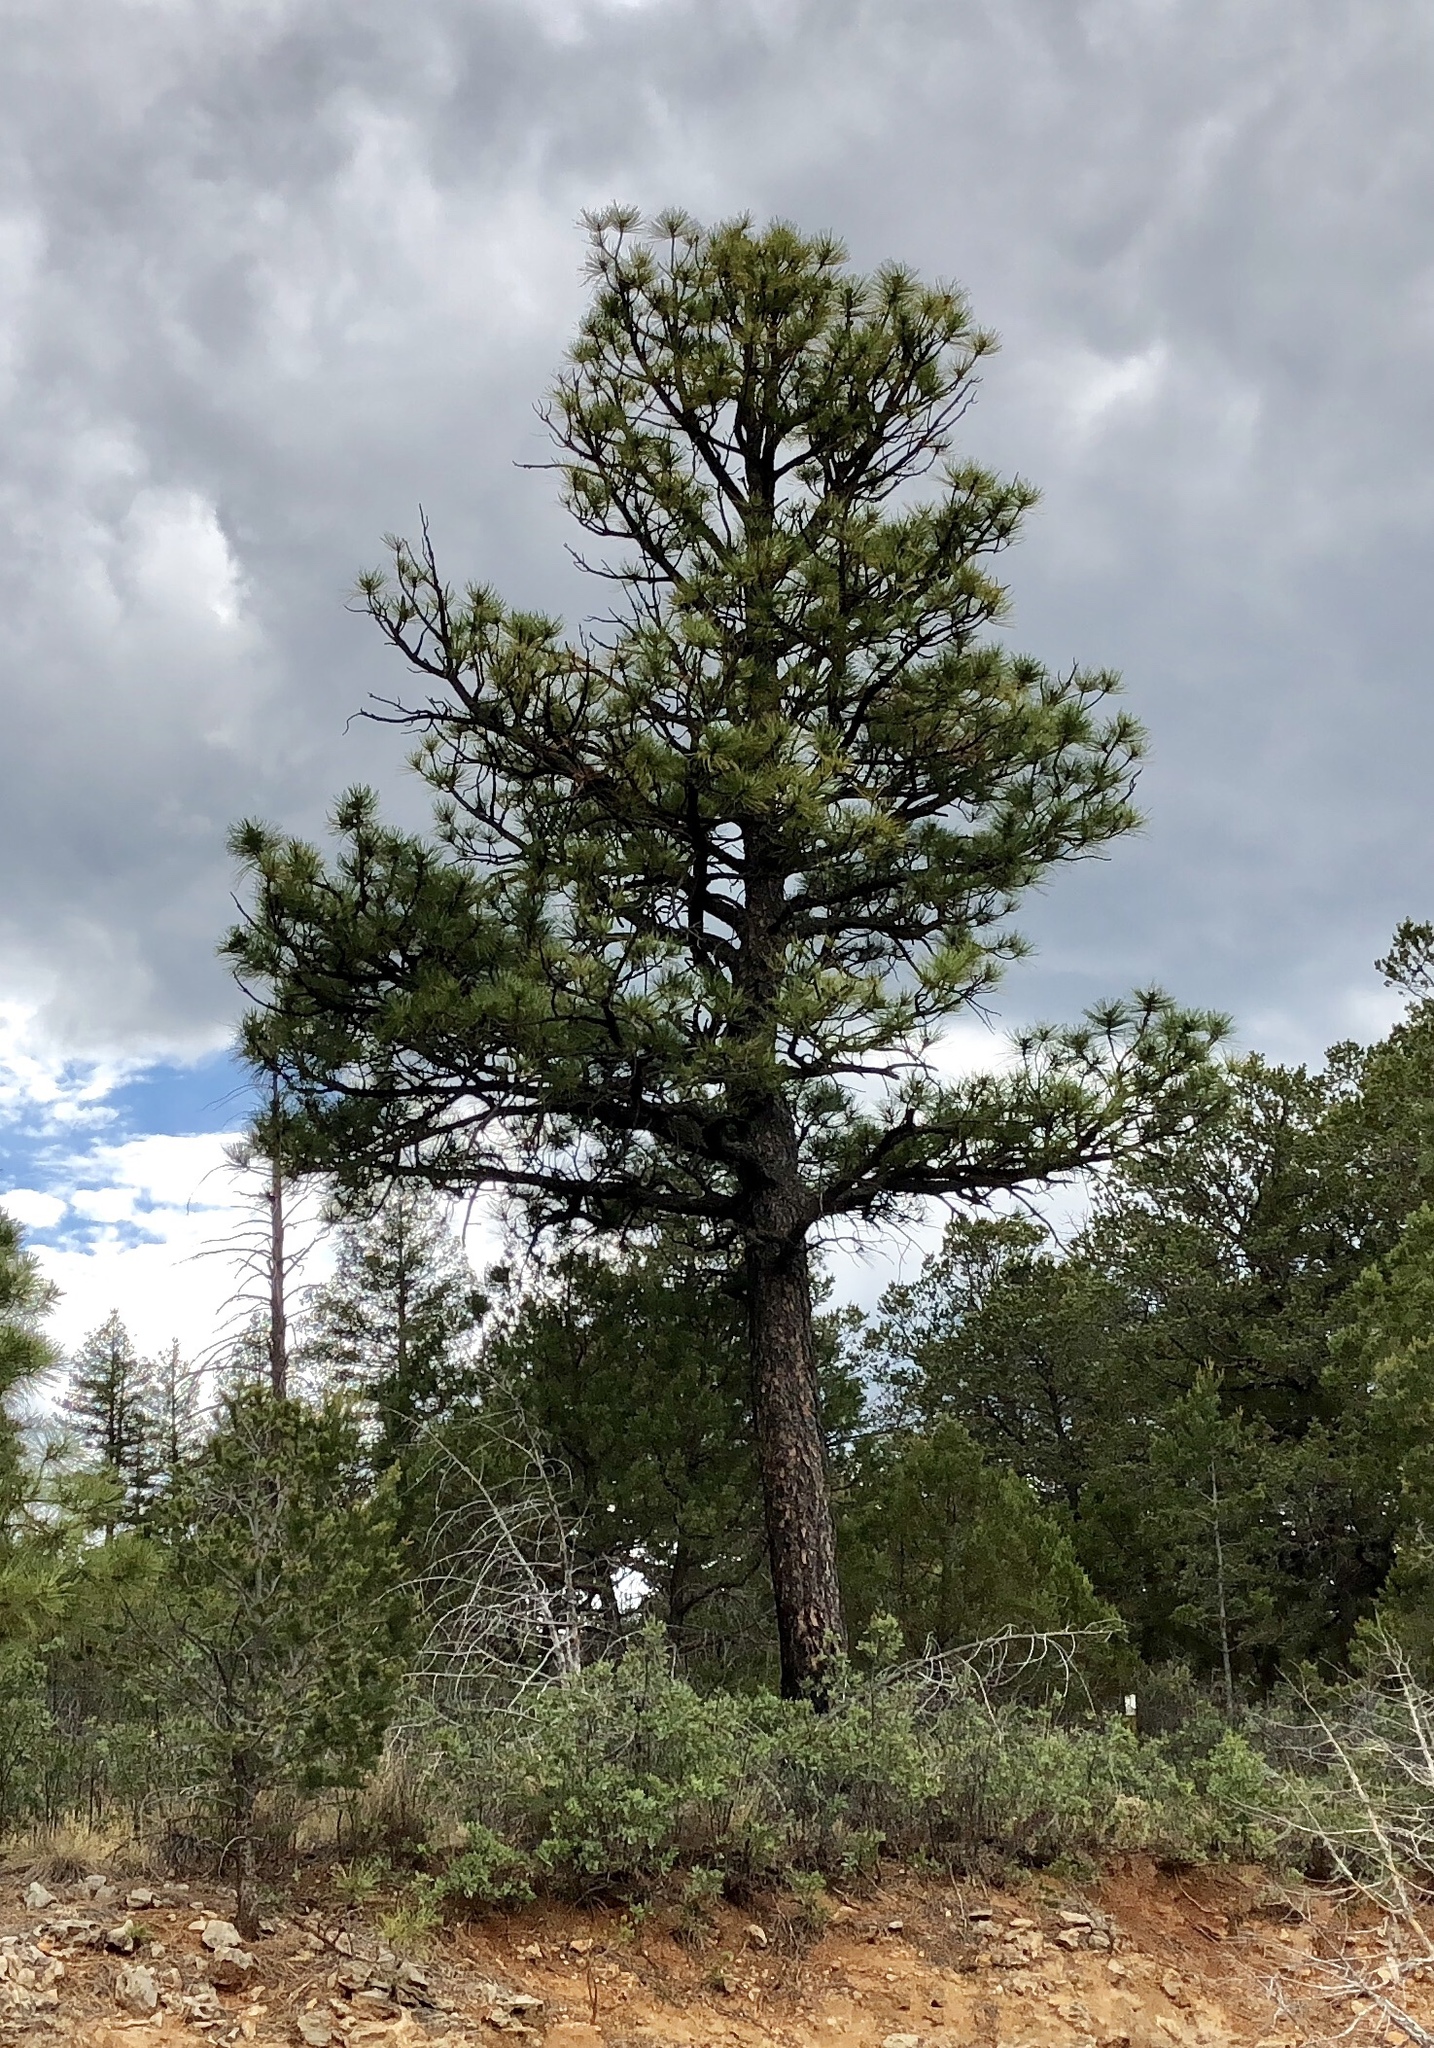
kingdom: Plantae
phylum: Tracheophyta
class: Pinopsida
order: Pinales
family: Pinaceae
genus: Pinus
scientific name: Pinus ponderosa
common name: Western yellow-pine
